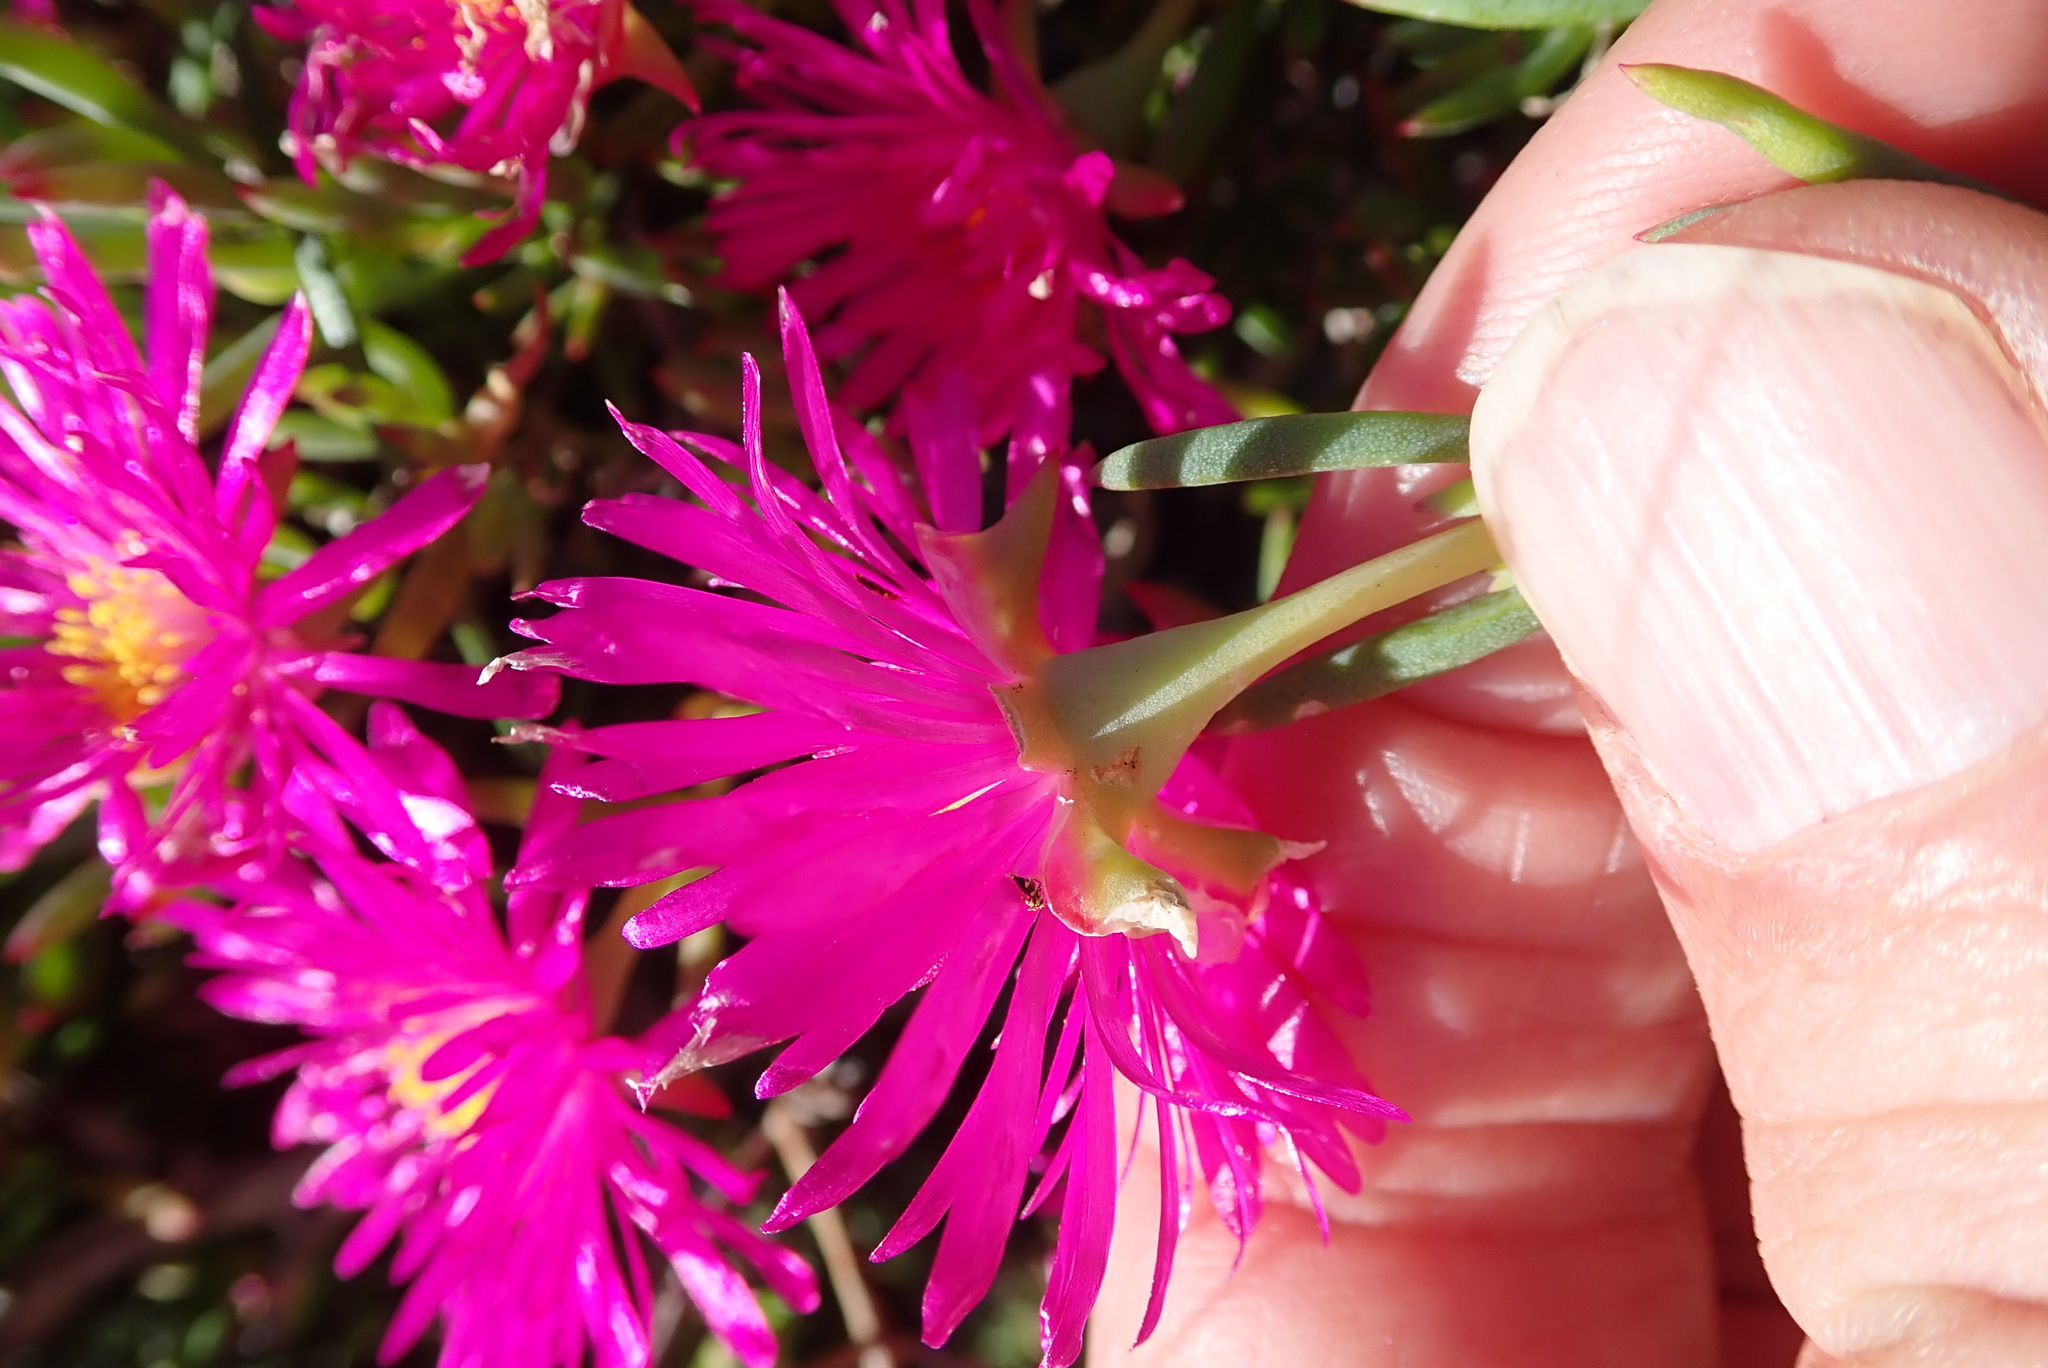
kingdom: Plantae
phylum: Tracheophyta
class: Magnoliopsida
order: Caryophyllales
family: Aizoaceae
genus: Lampranthus
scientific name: Lampranthus vernalis
